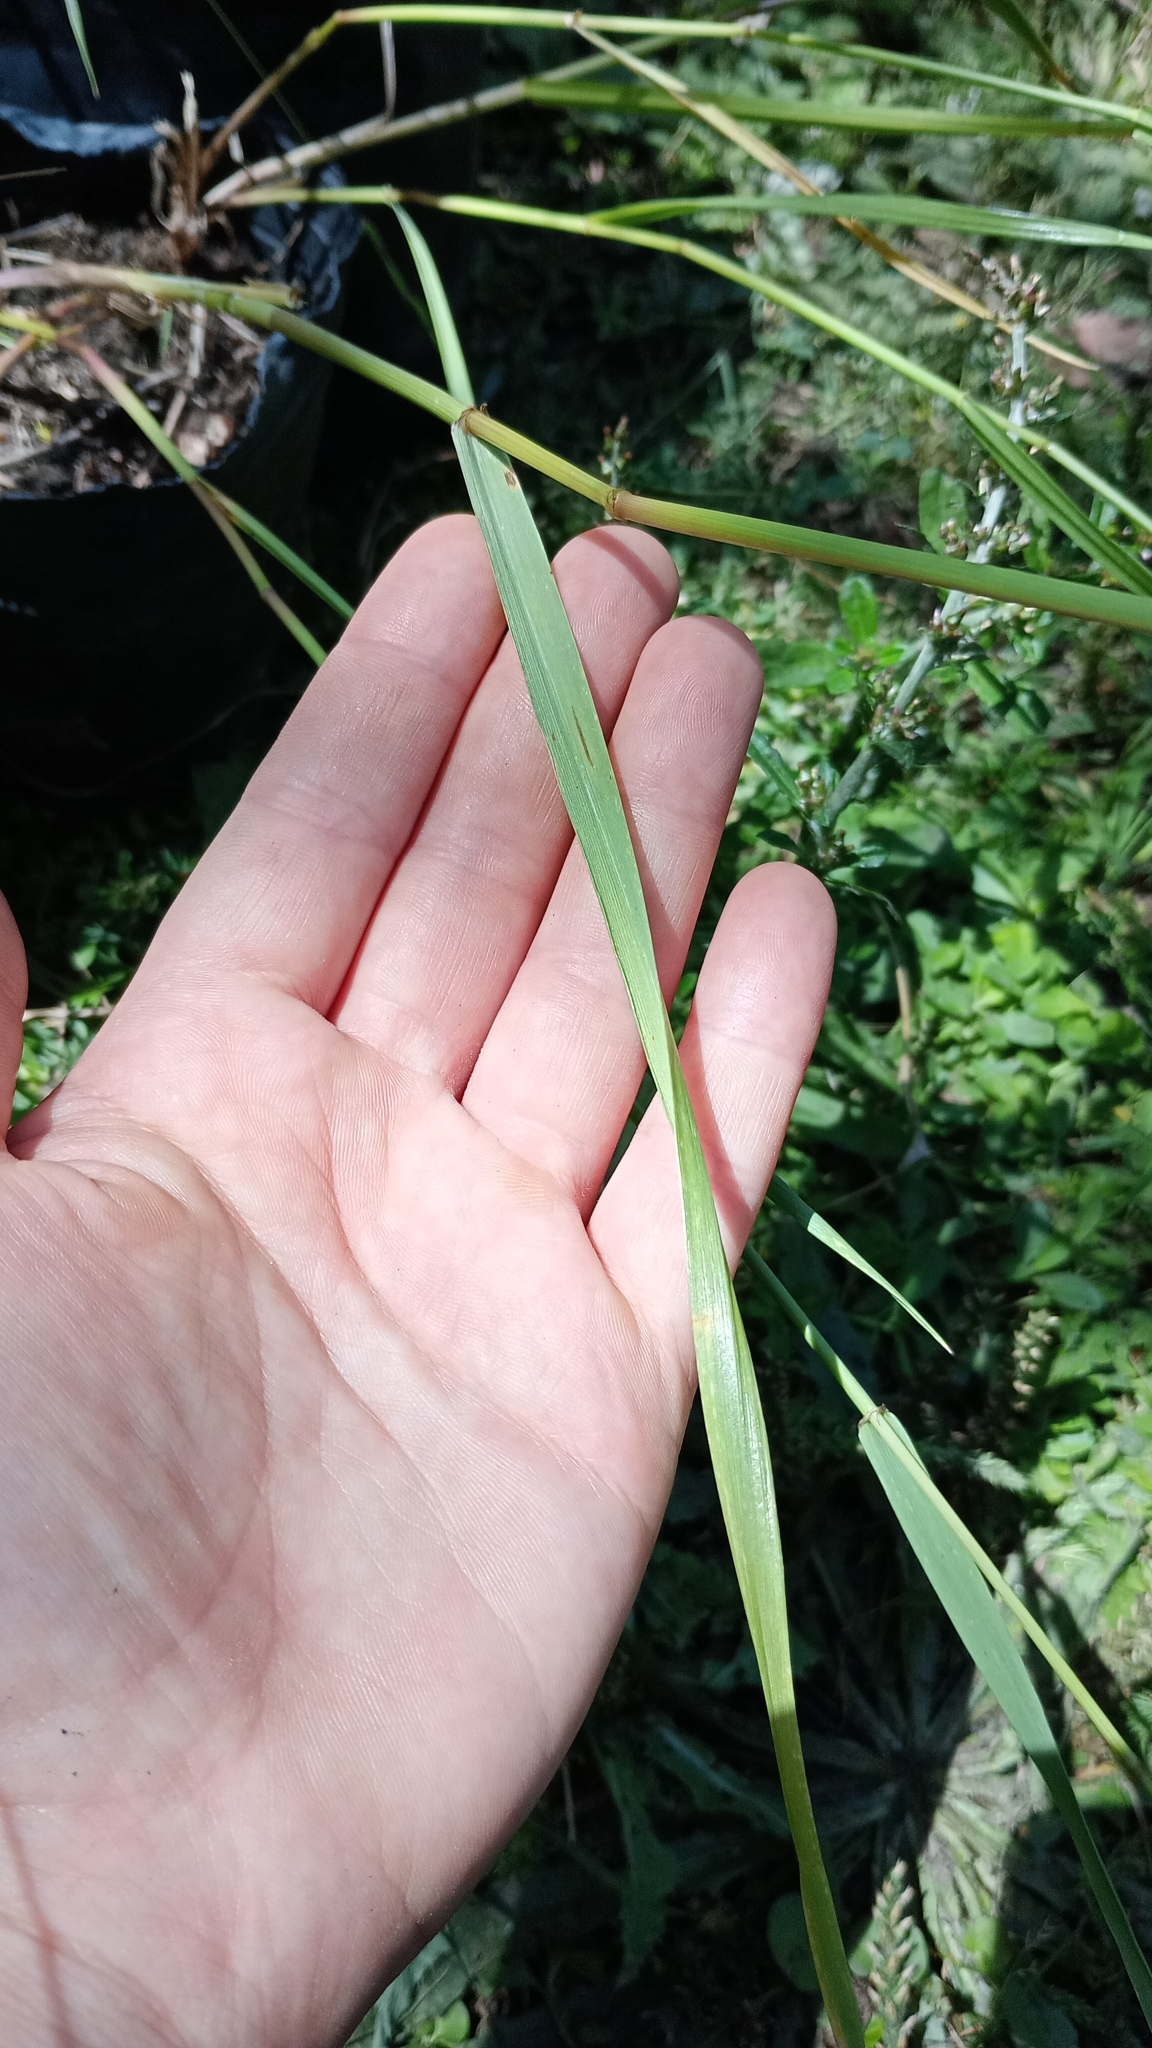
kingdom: Plantae
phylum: Tracheophyta
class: Liliopsida
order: Poales
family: Poaceae
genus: Lolium
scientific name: Lolium multiflorum
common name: Annual ryegrass
